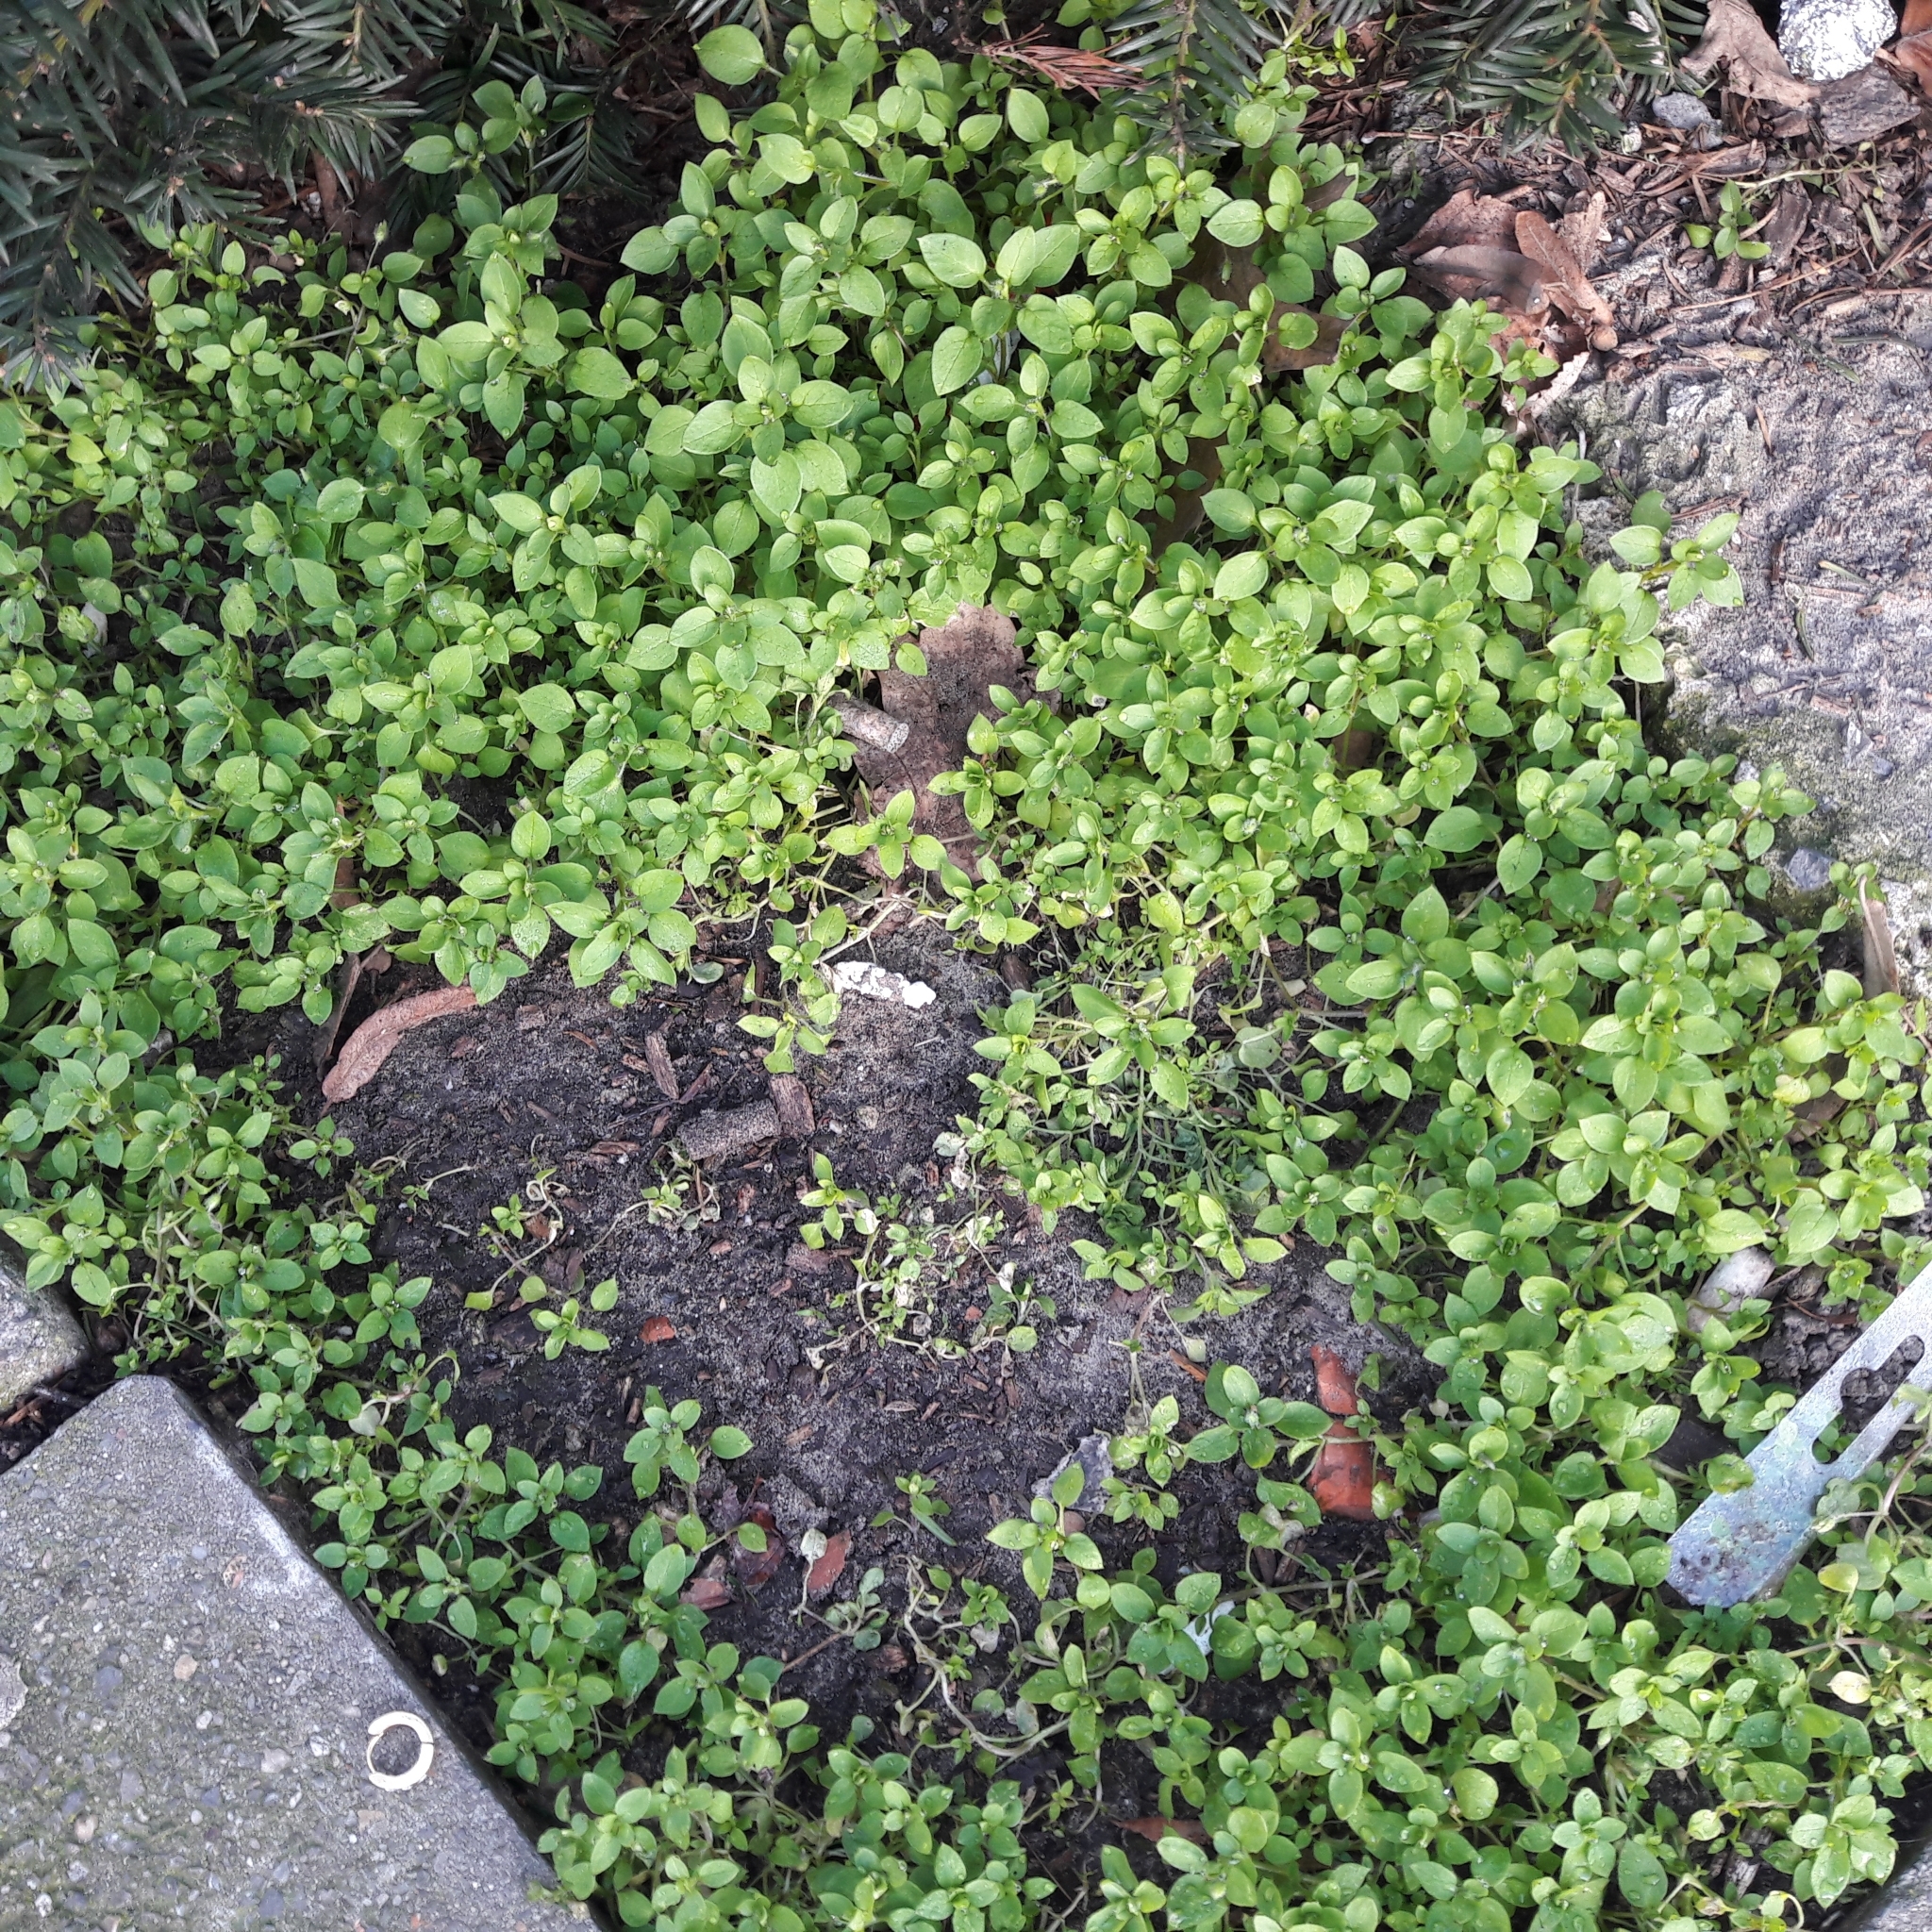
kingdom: Plantae
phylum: Tracheophyta
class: Magnoliopsida
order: Caryophyllales
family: Caryophyllaceae
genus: Stellaria
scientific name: Stellaria media
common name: Common chickweed
